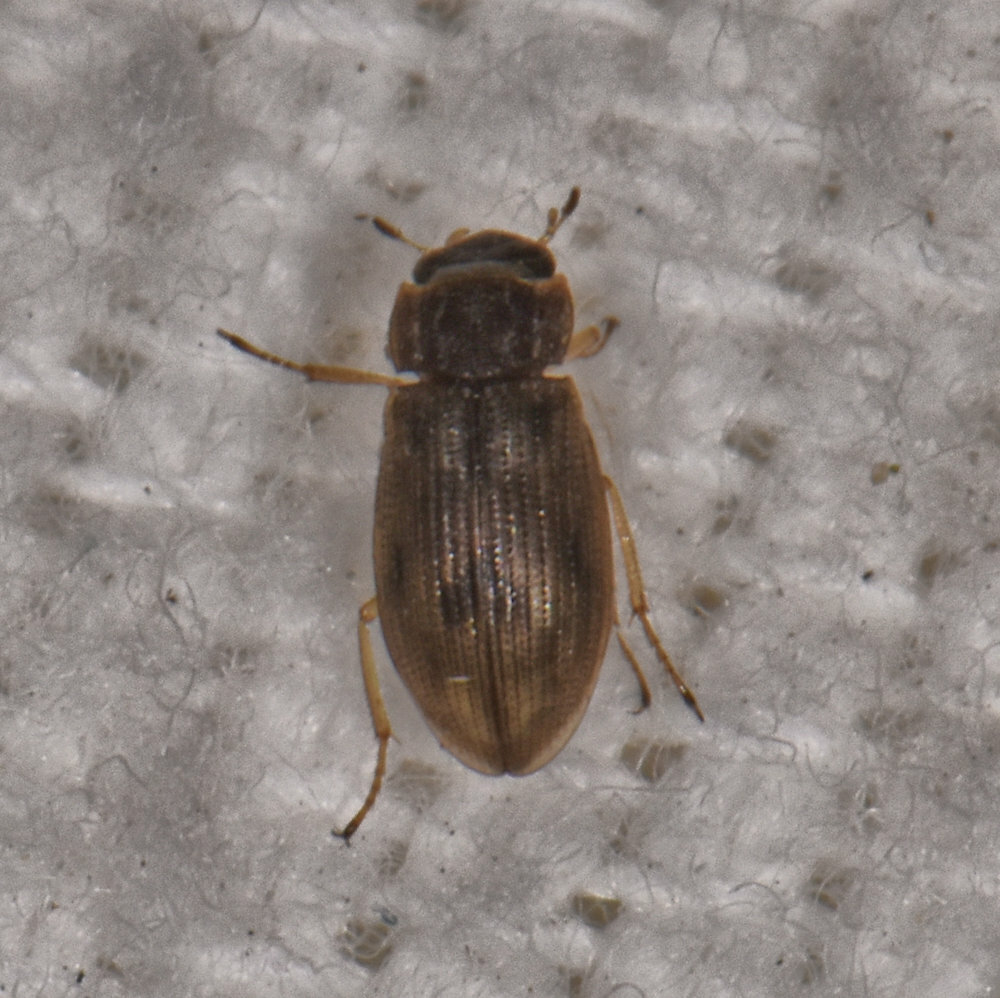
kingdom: Animalia
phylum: Arthropoda
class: Insecta
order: Coleoptera
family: Helophoridae
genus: Helophorus
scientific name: Helophorus
